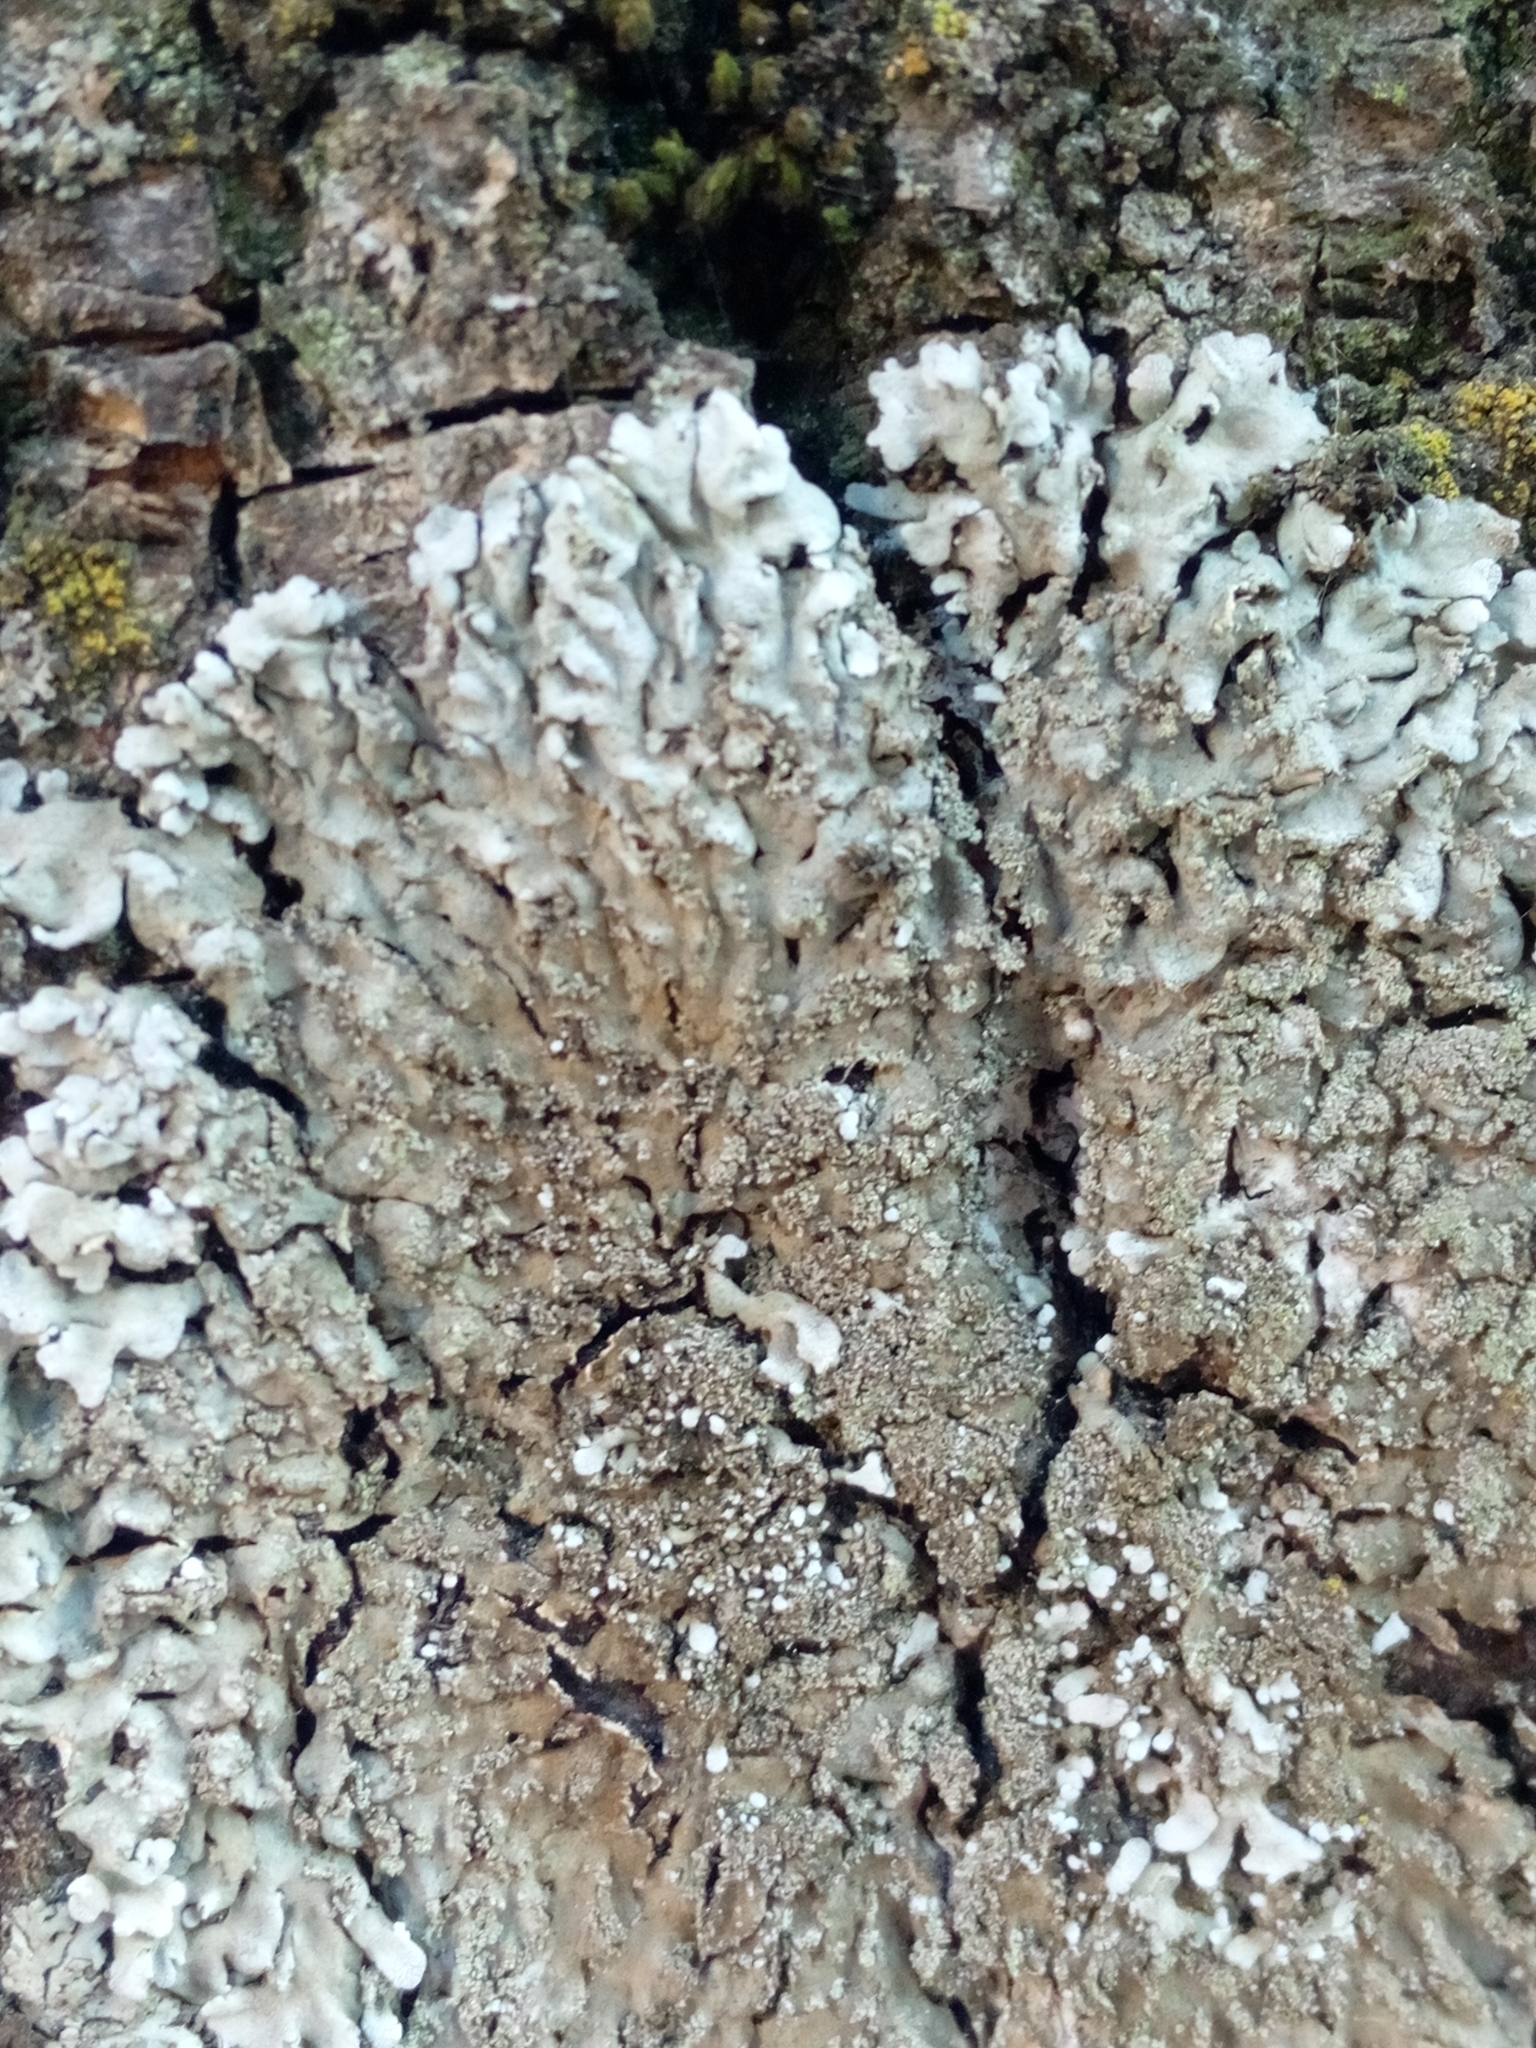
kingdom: Fungi
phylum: Ascomycota
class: Lecanoromycetes
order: Caliciales
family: Physciaceae
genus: Physconia
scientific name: Physconia
